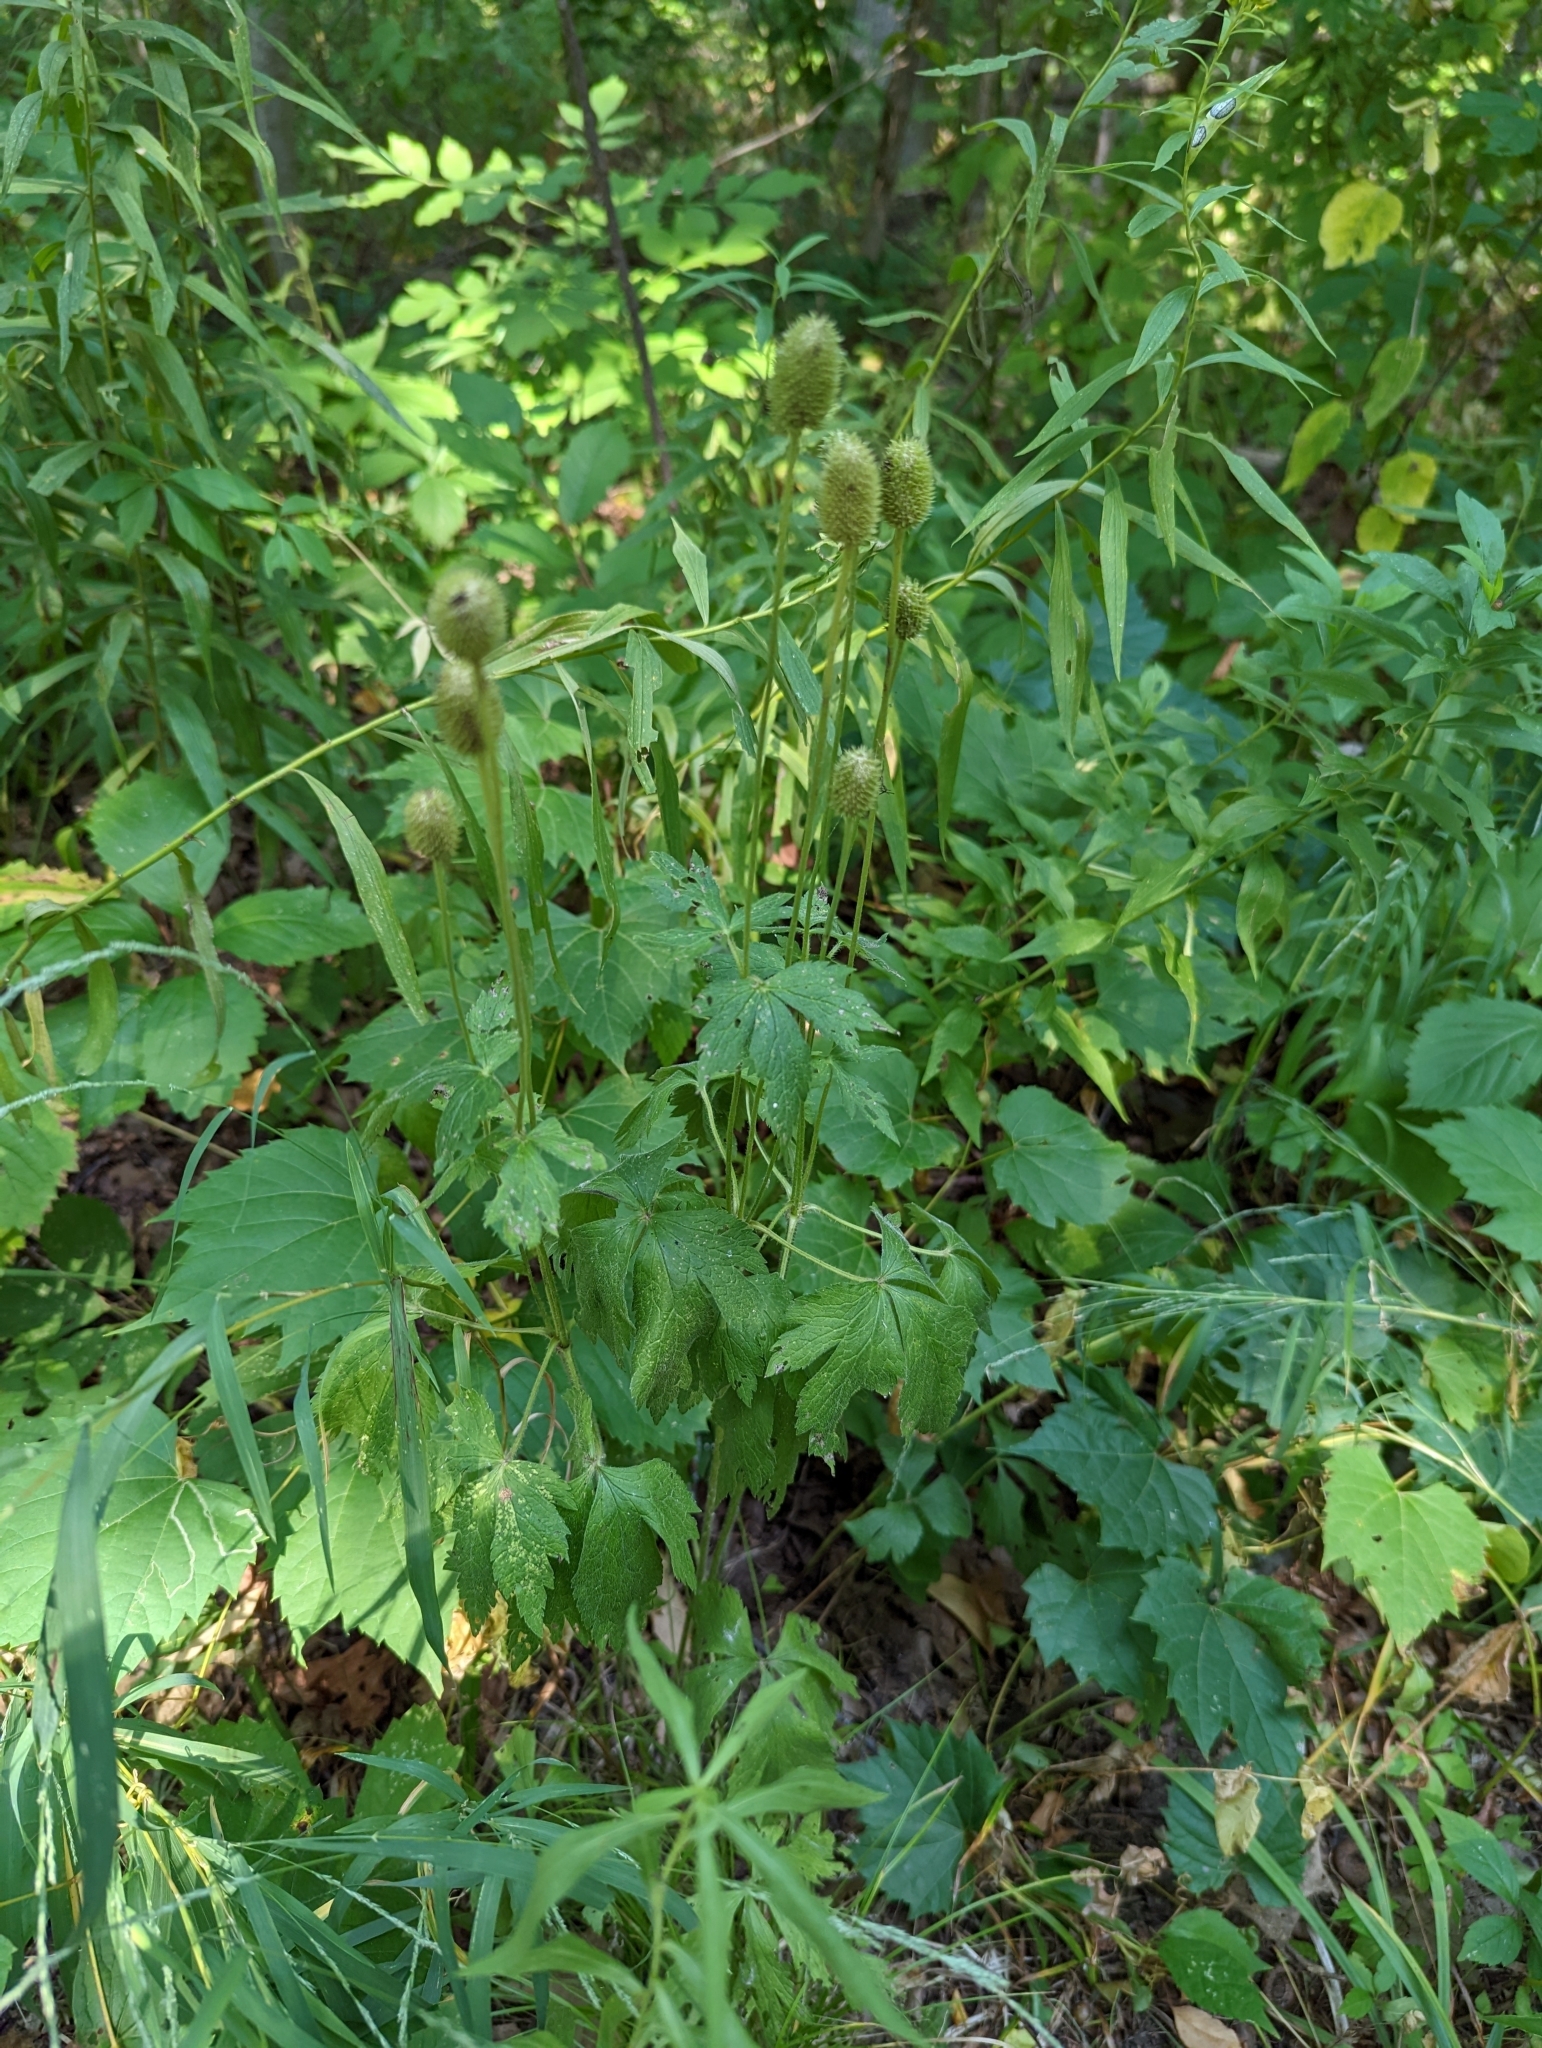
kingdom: Plantae
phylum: Tracheophyta
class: Magnoliopsida
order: Ranunculales
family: Ranunculaceae
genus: Anemone
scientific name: Anemone virginiana
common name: Tall anemone
